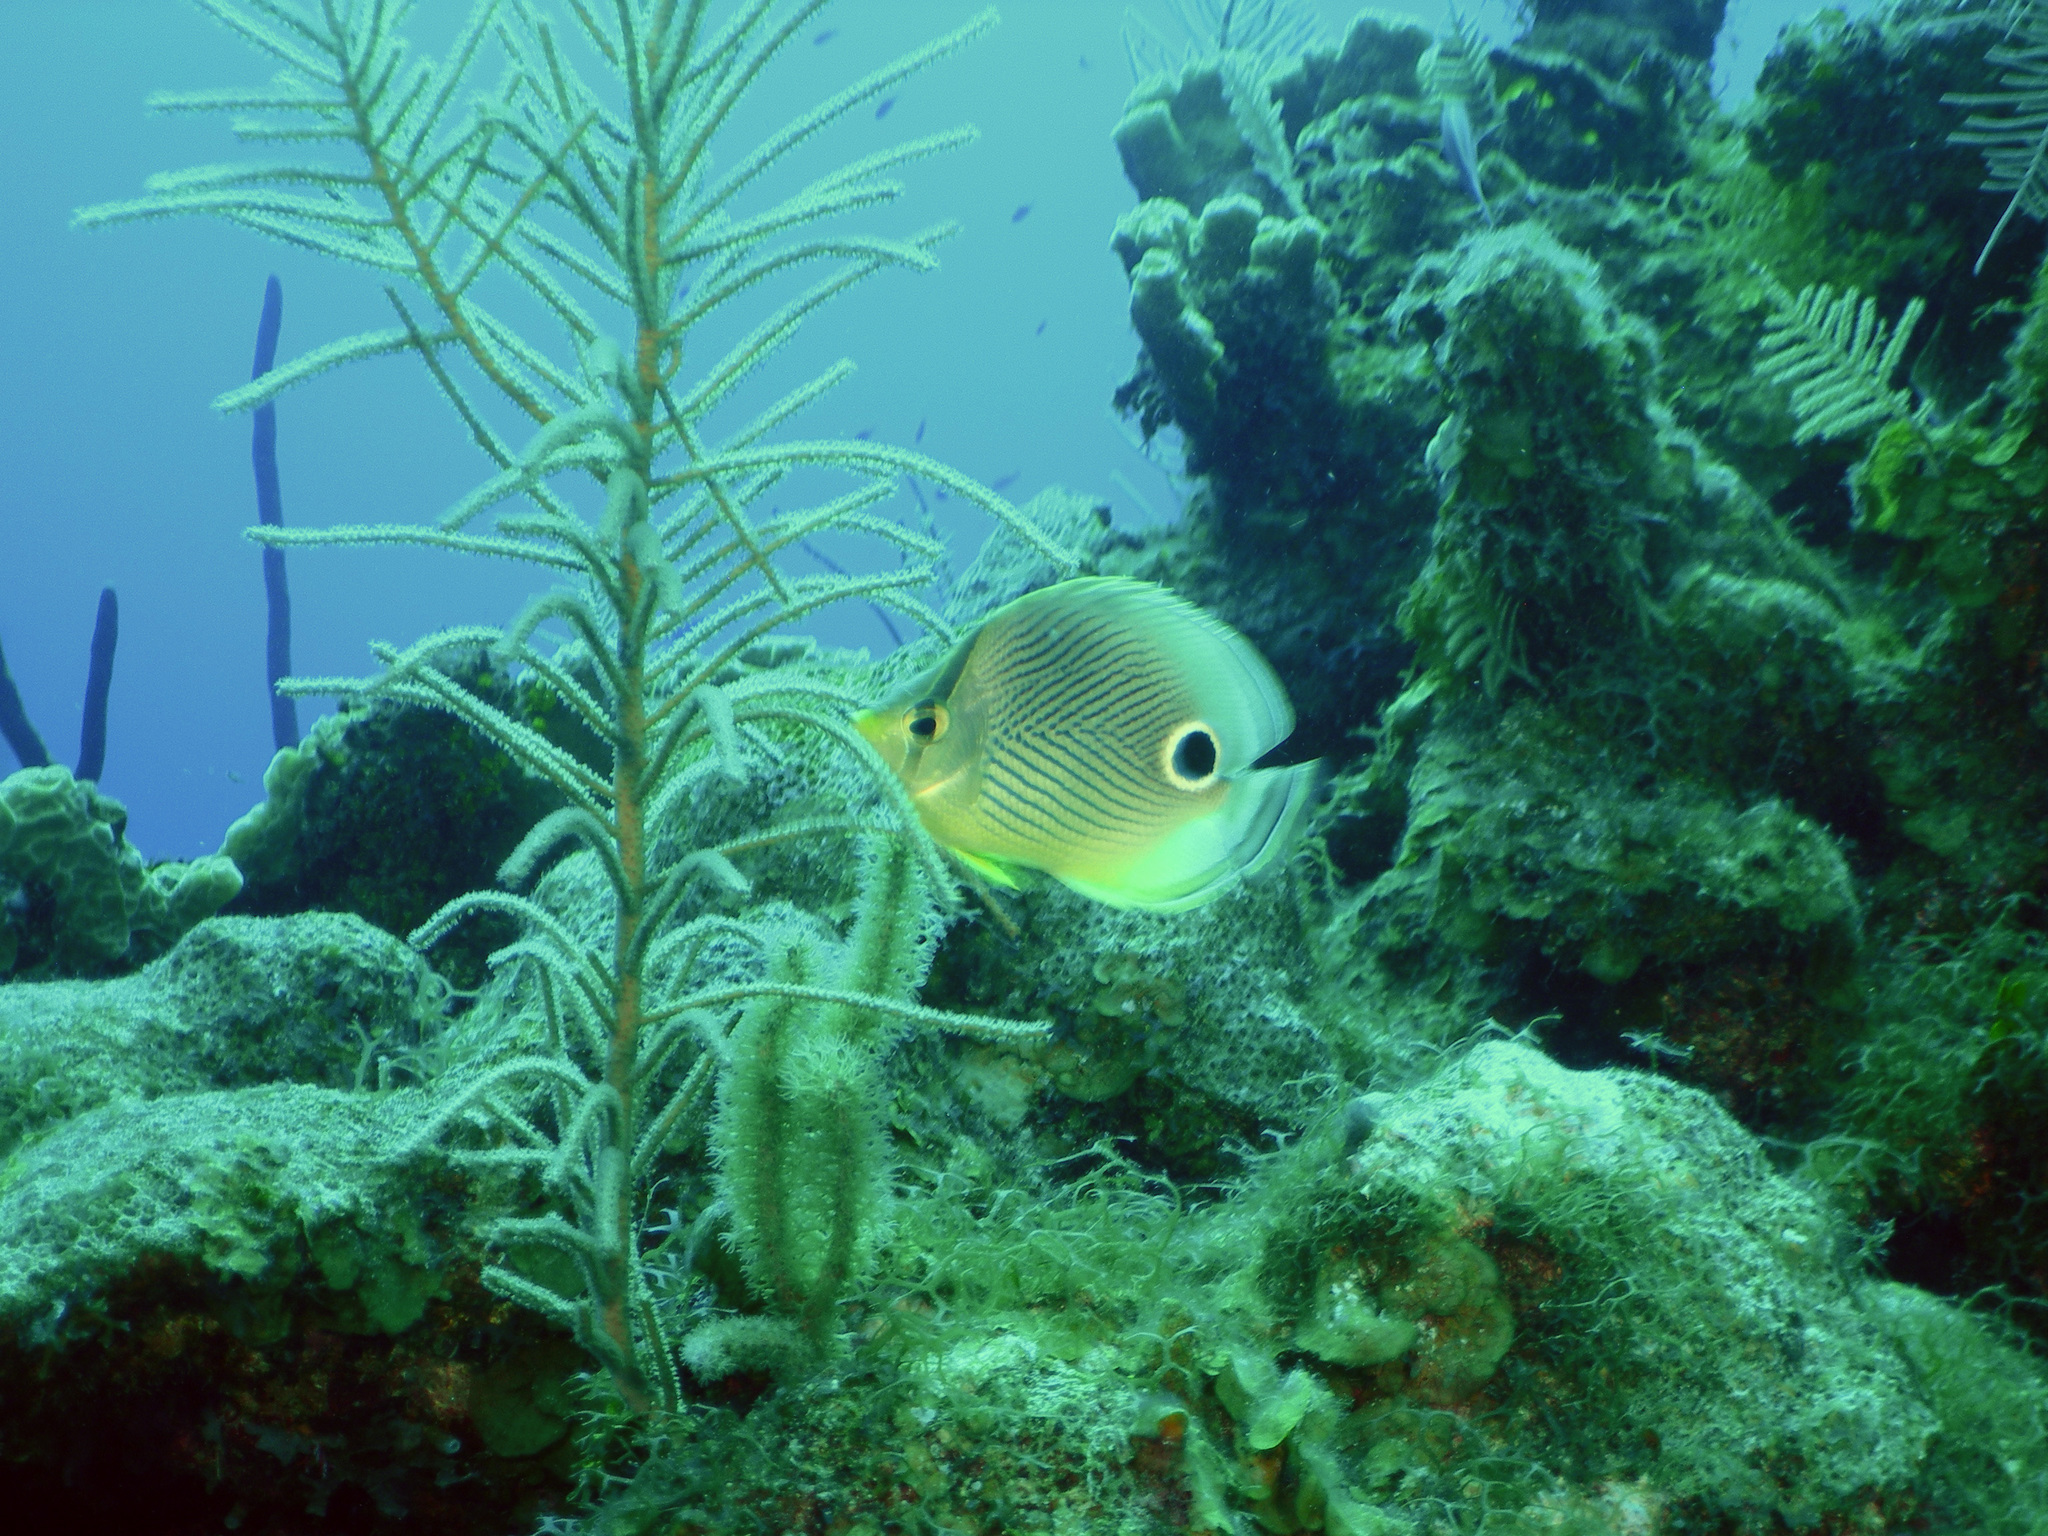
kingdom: Animalia
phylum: Chordata
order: Perciformes
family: Chaetodontidae
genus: Chaetodon
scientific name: Chaetodon capistratus
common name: Kete
